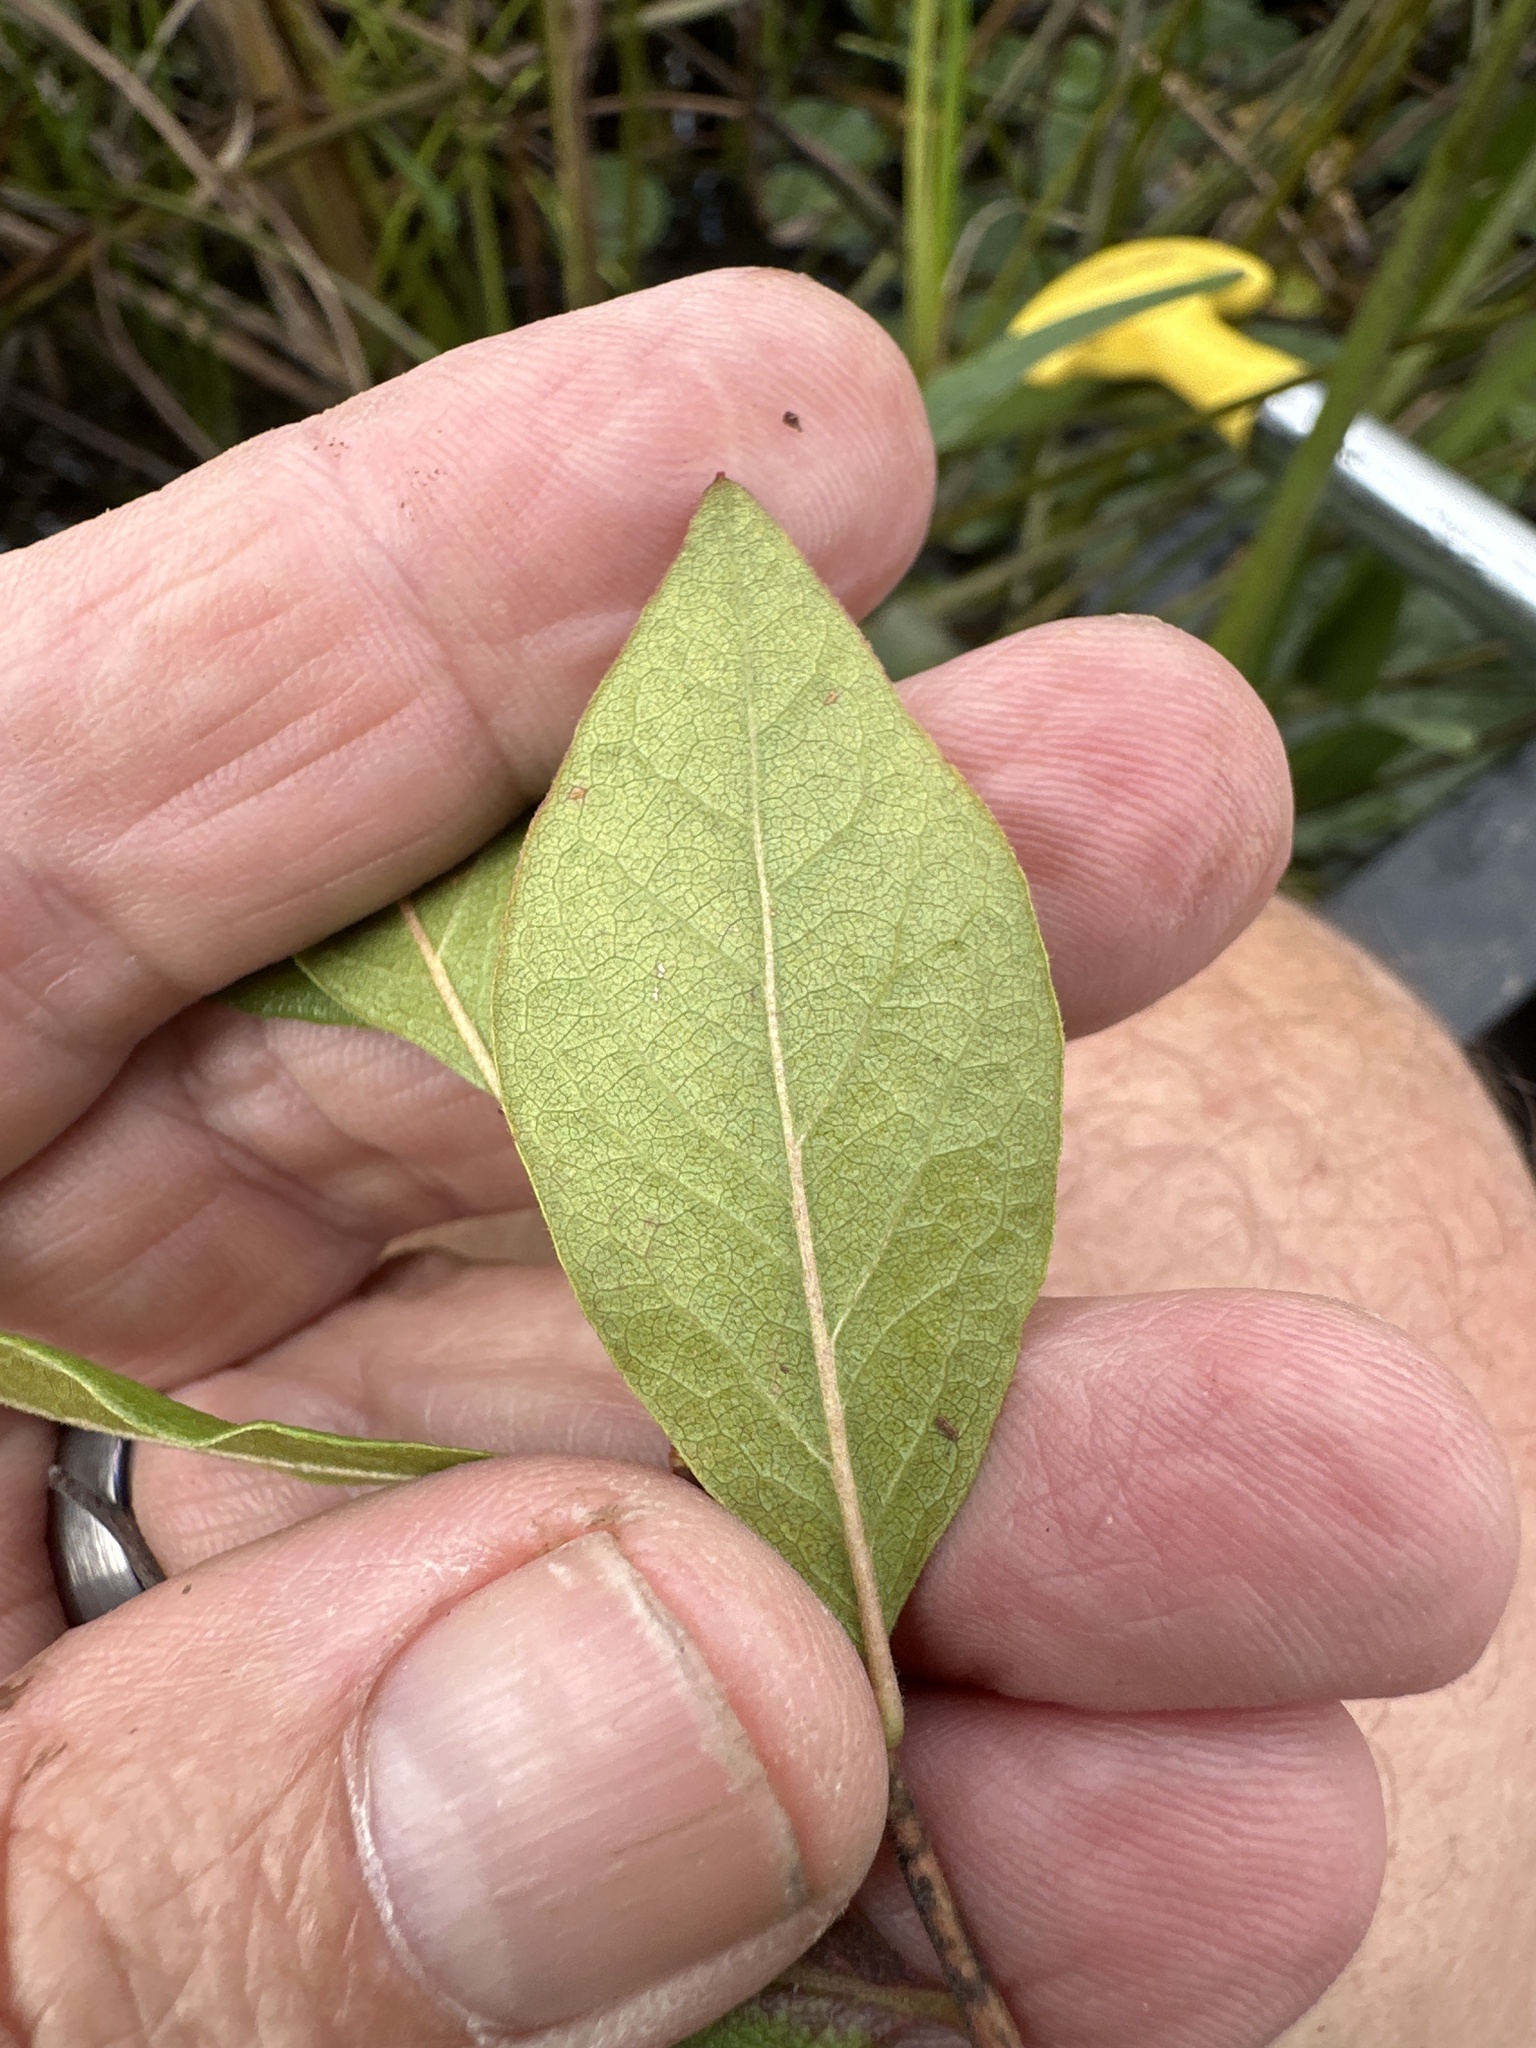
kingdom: Plantae
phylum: Tracheophyta
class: Magnoliopsida
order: Rosales
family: Rosaceae
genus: Aronia
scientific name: Aronia melanocarpa
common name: Black chokeberry
